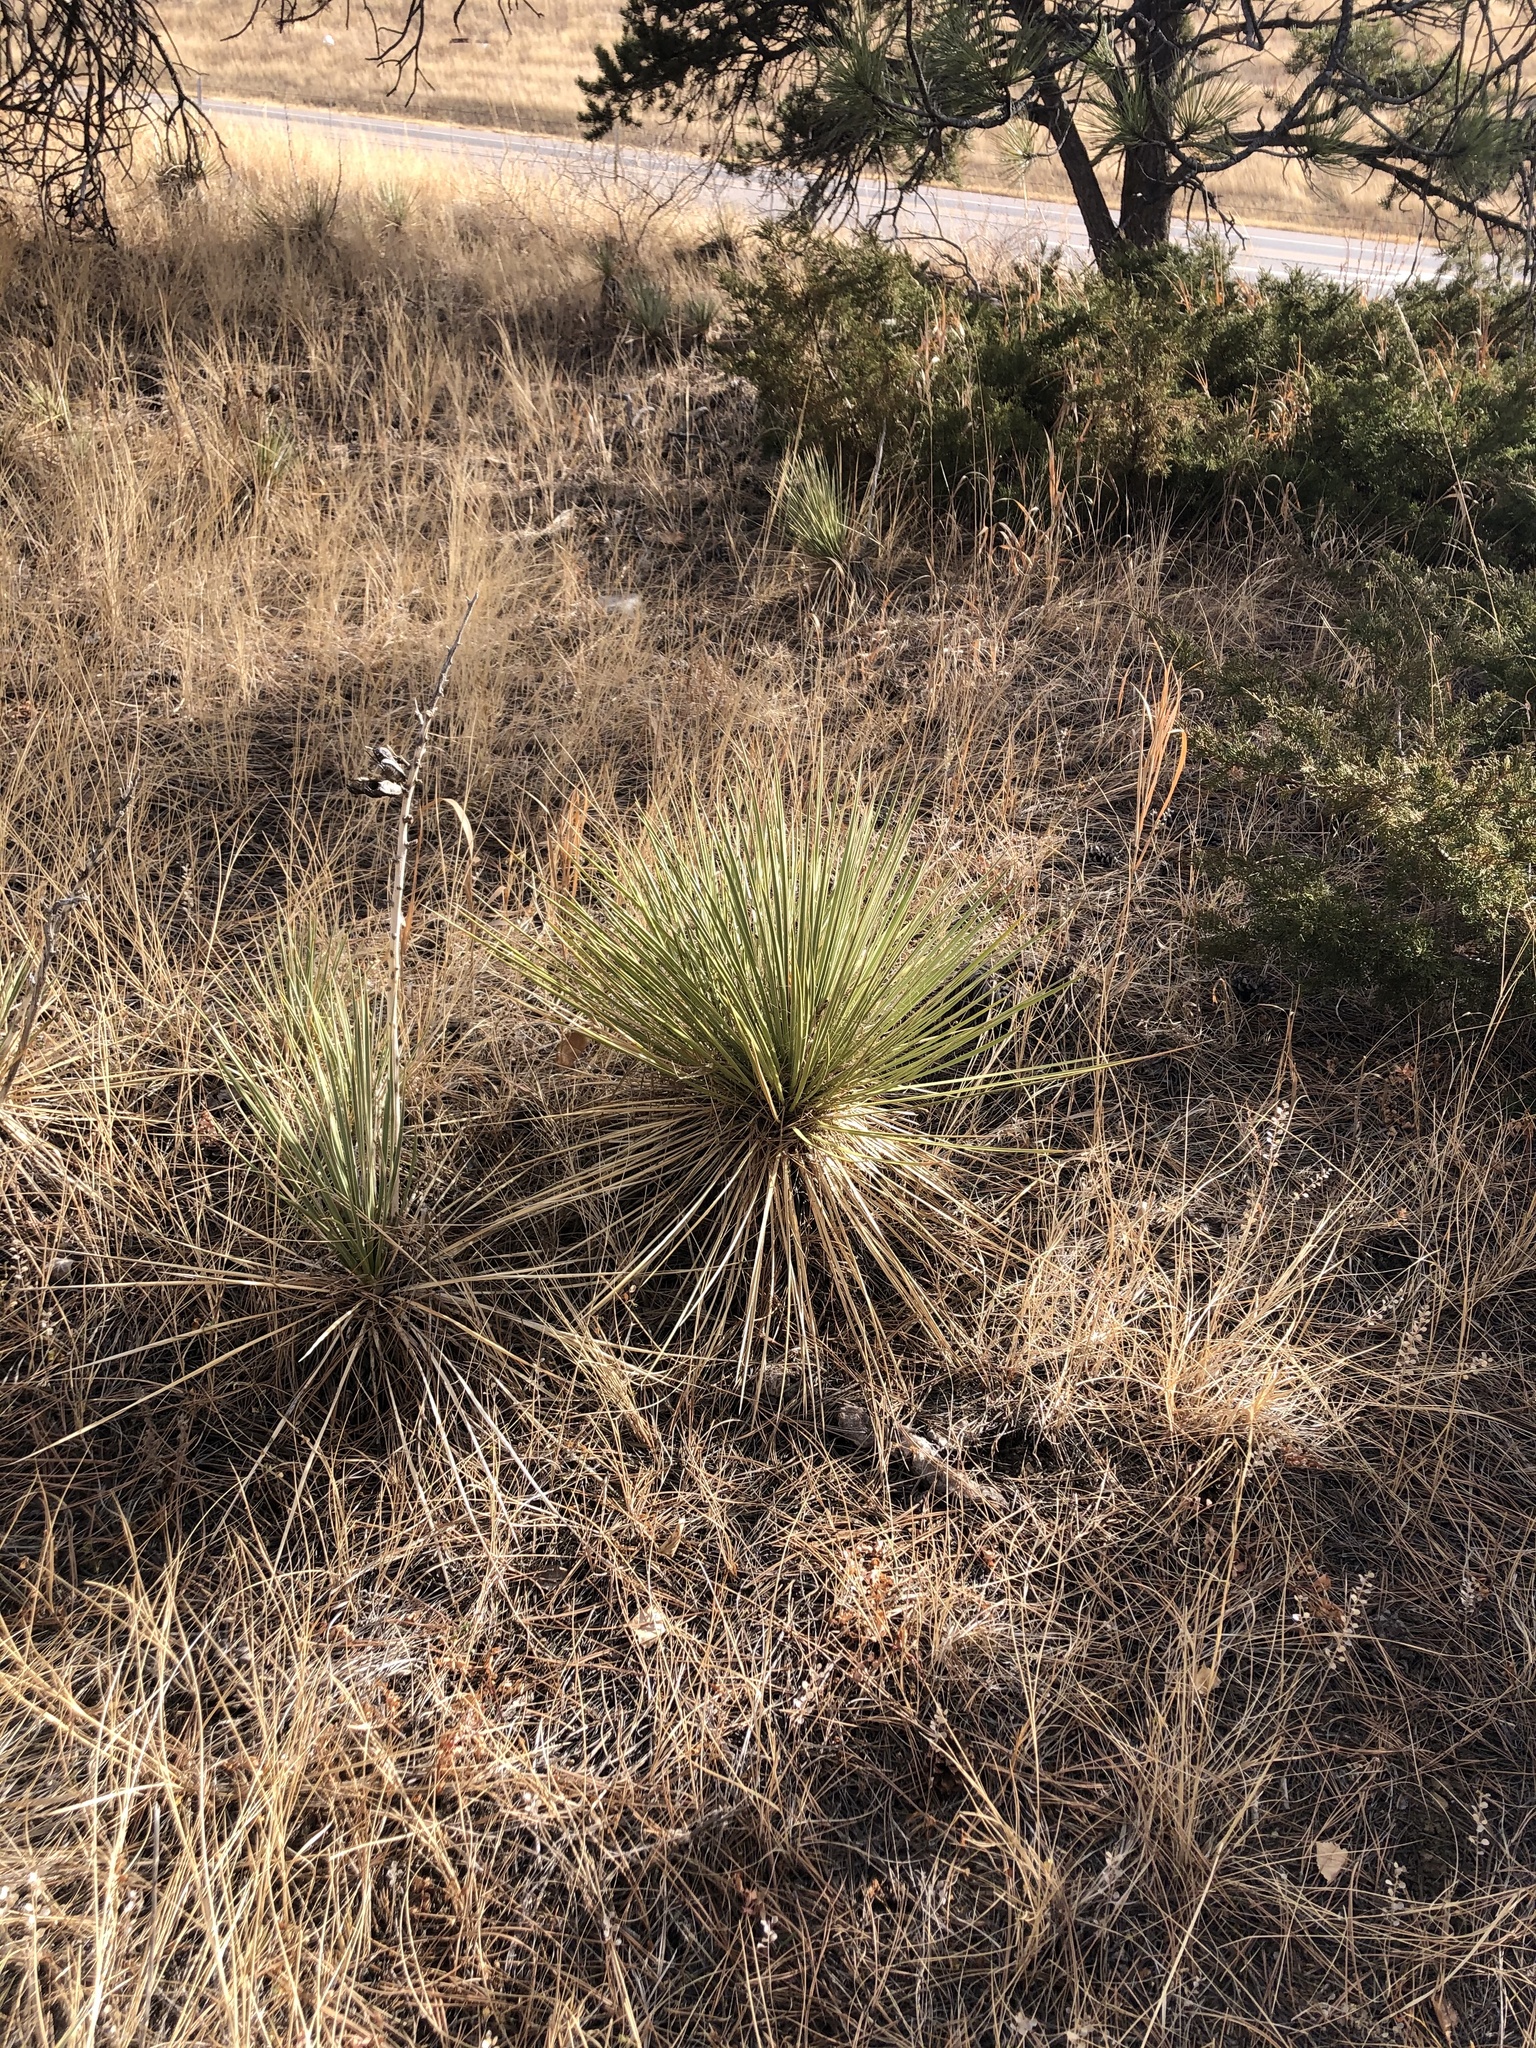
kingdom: Plantae
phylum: Tracheophyta
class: Liliopsida
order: Asparagales
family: Asparagaceae
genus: Yucca
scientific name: Yucca glauca
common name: Great plains yucca
